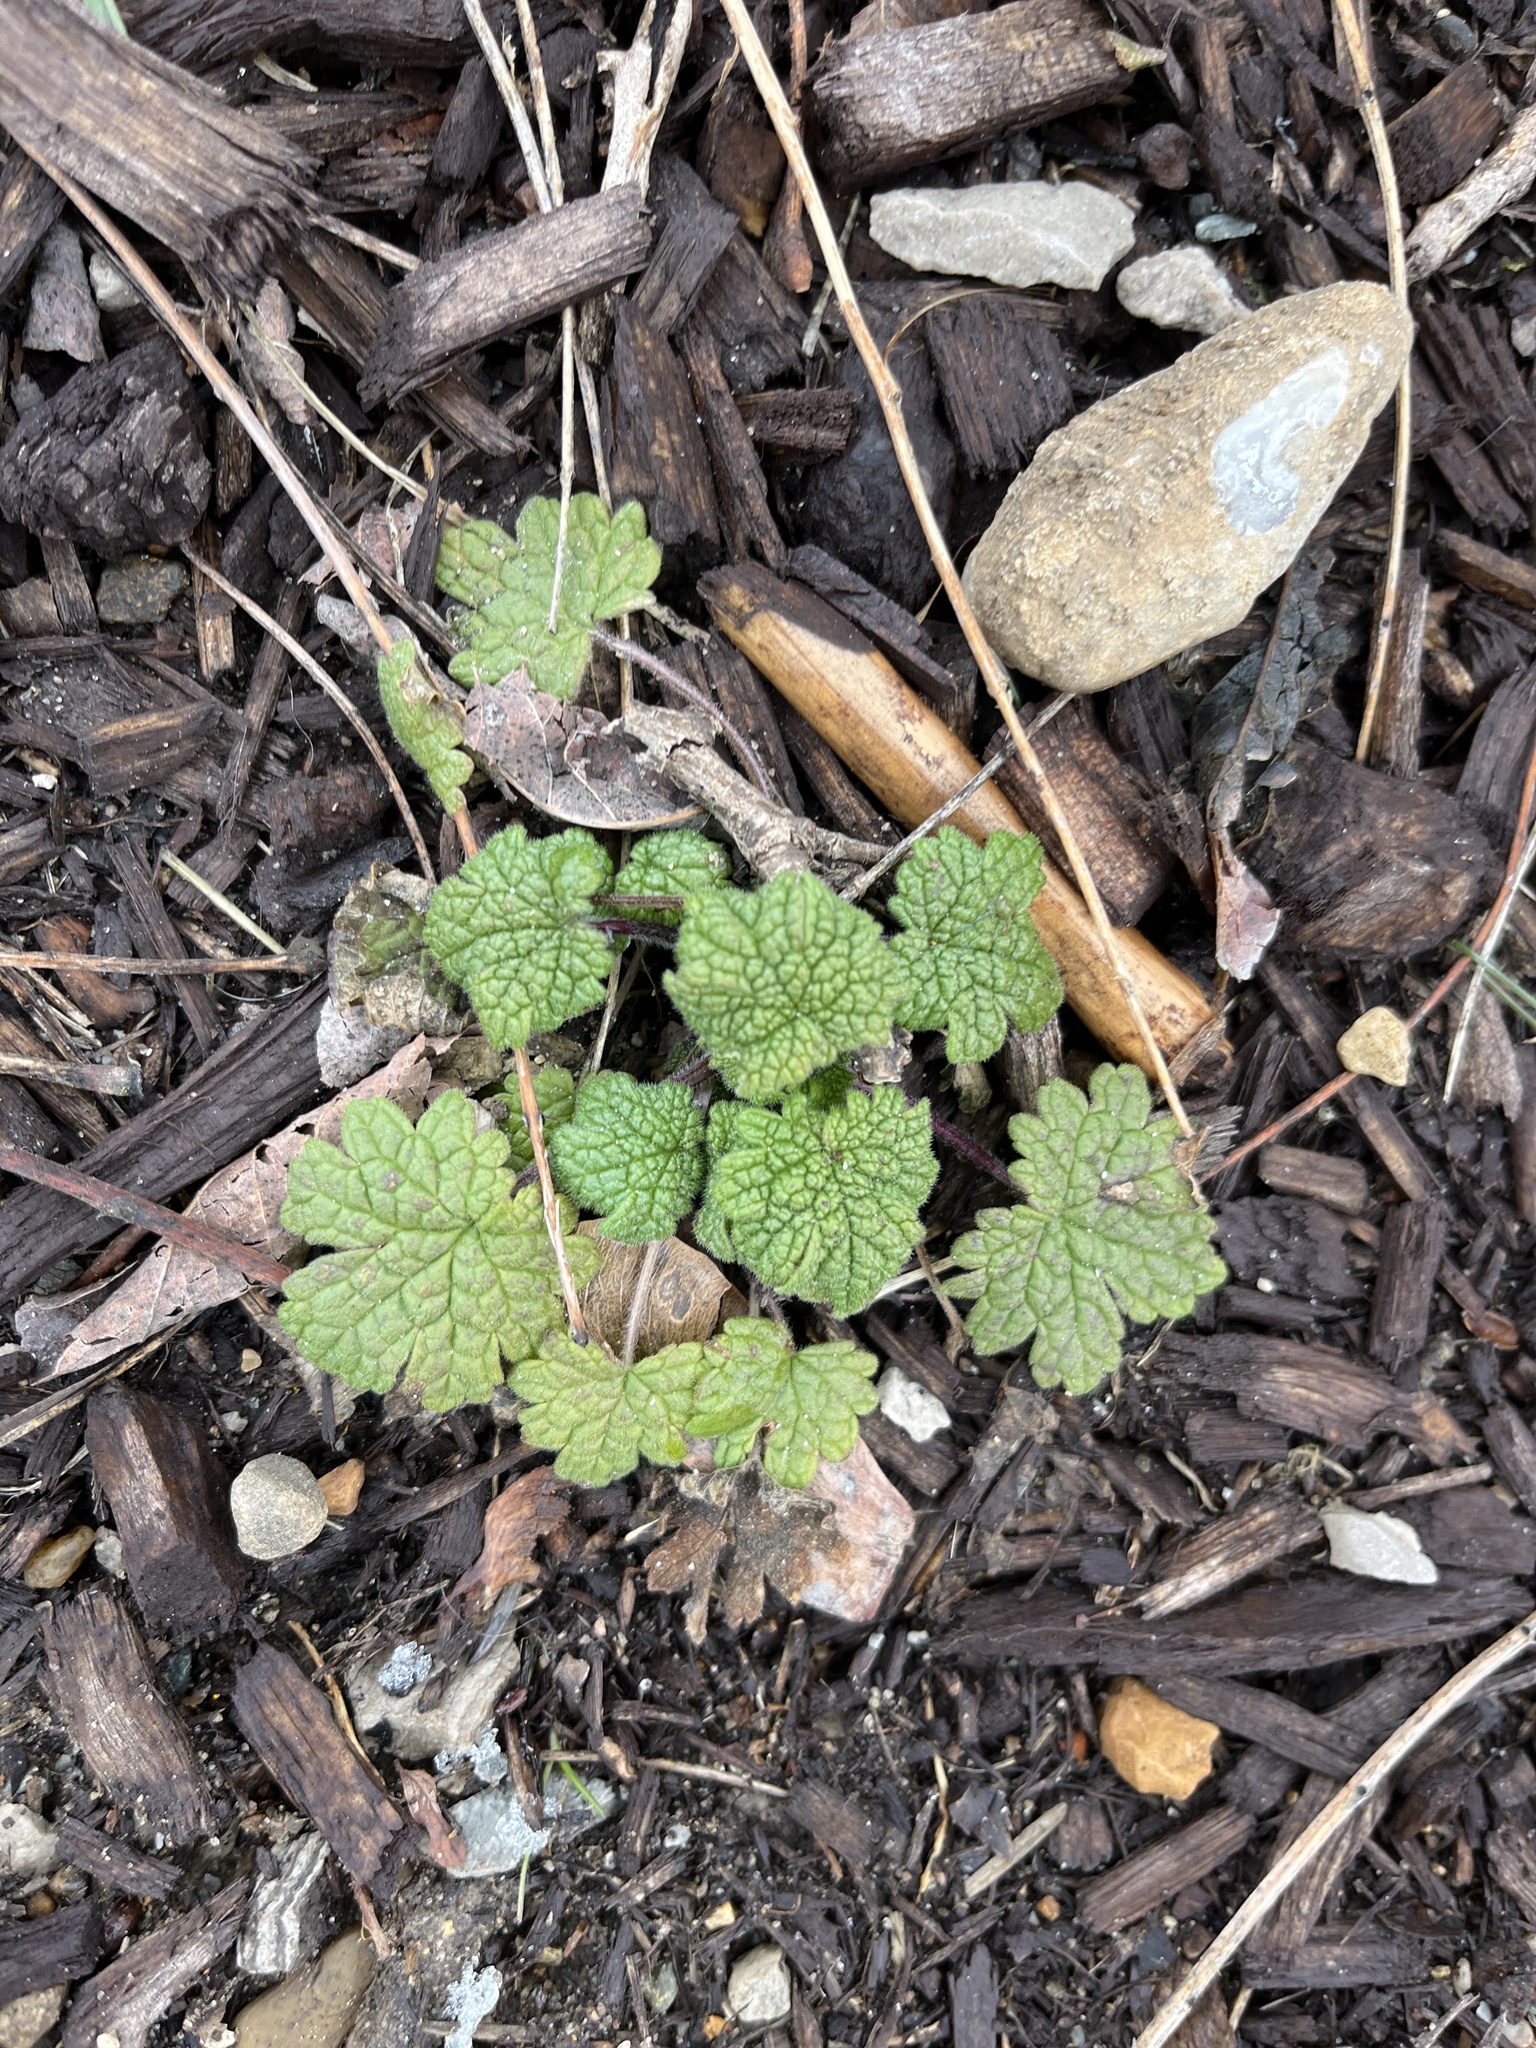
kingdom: Plantae
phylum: Tracheophyta
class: Magnoliopsida
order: Lamiales
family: Lamiaceae
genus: Leonurus
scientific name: Leonurus cardiaca
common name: Motherwort
